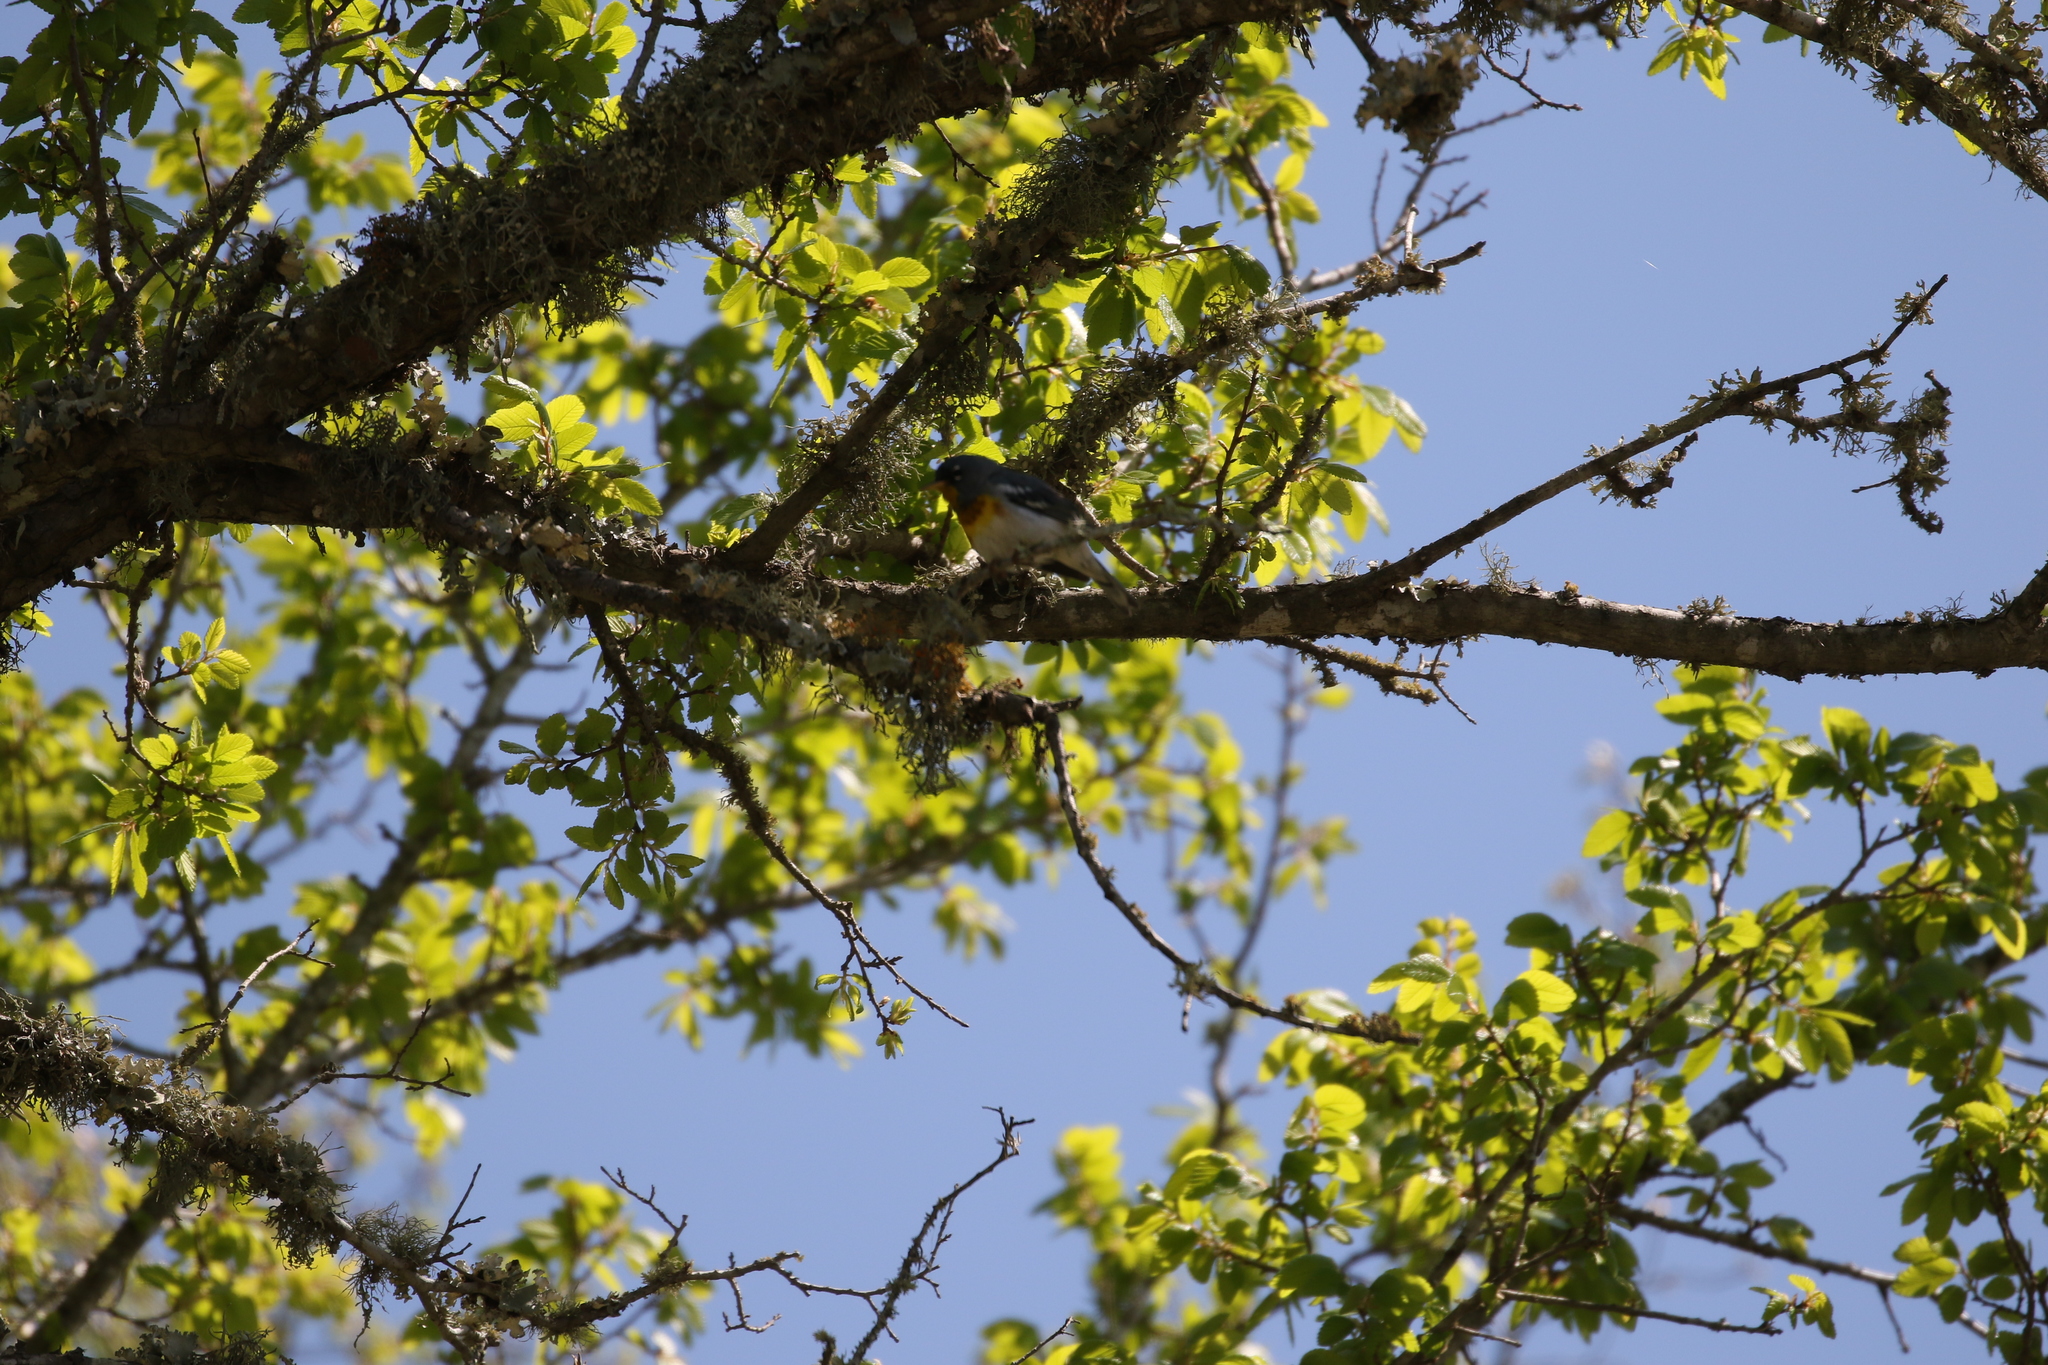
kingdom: Animalia
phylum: Chordata
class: Aves
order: Passeriformes
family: Parulidae
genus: Setophaga
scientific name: Setophaga americana
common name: Northern parula
